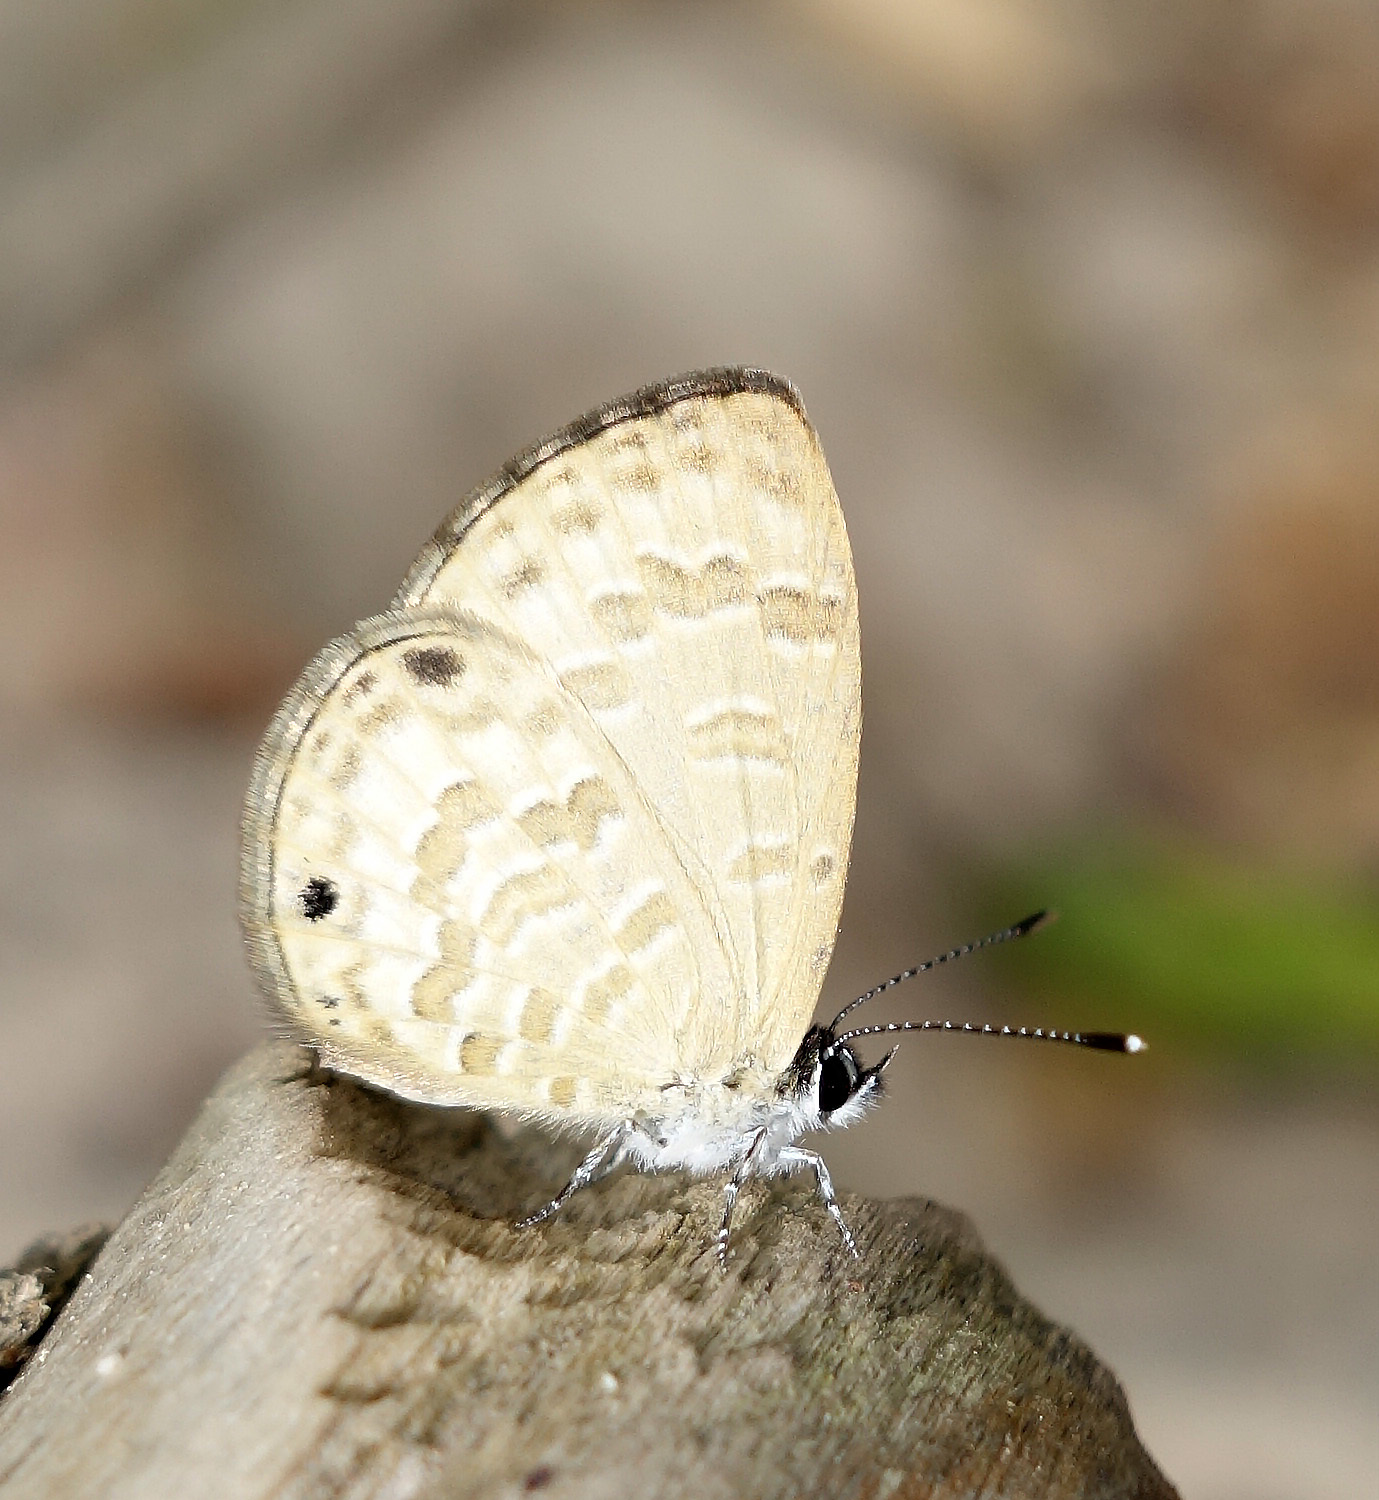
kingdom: Animalia
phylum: Arthropoda
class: Insecta
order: Lepidoptera
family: Lycaenidae
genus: Prosotas
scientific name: Prosotas lutea
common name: Brown lineblue
